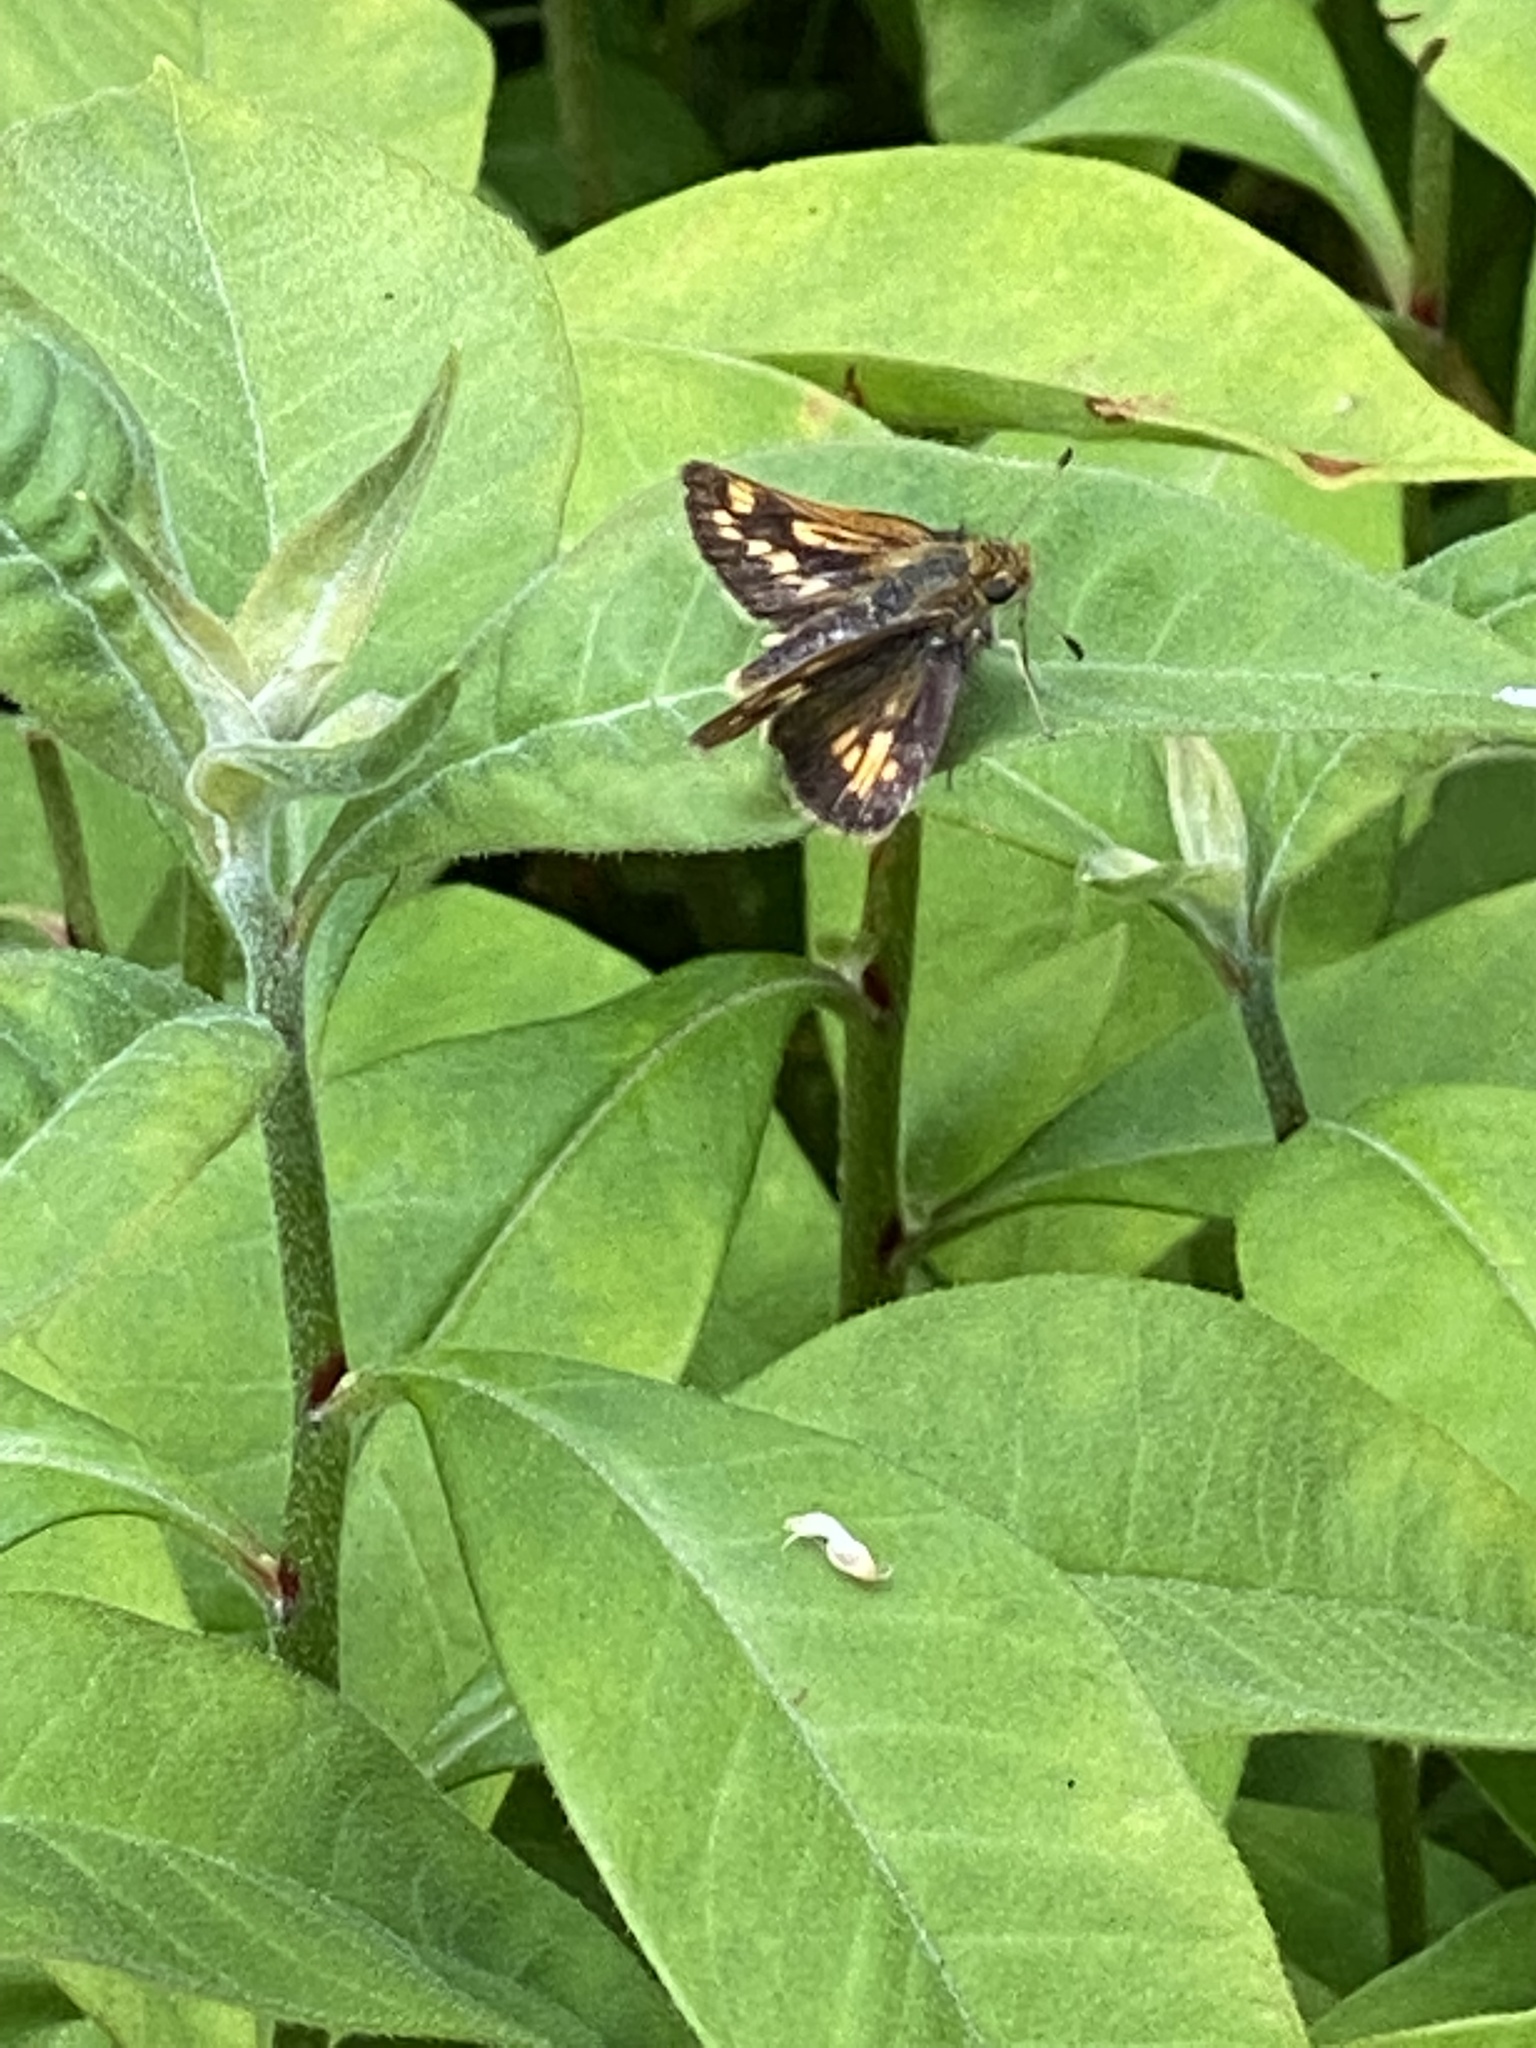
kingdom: Animalia
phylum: Arthropoda
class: Insecta
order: Lepidoptera
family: Hesperiidae
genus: Polites
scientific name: Polites coras
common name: Peck's skipper
